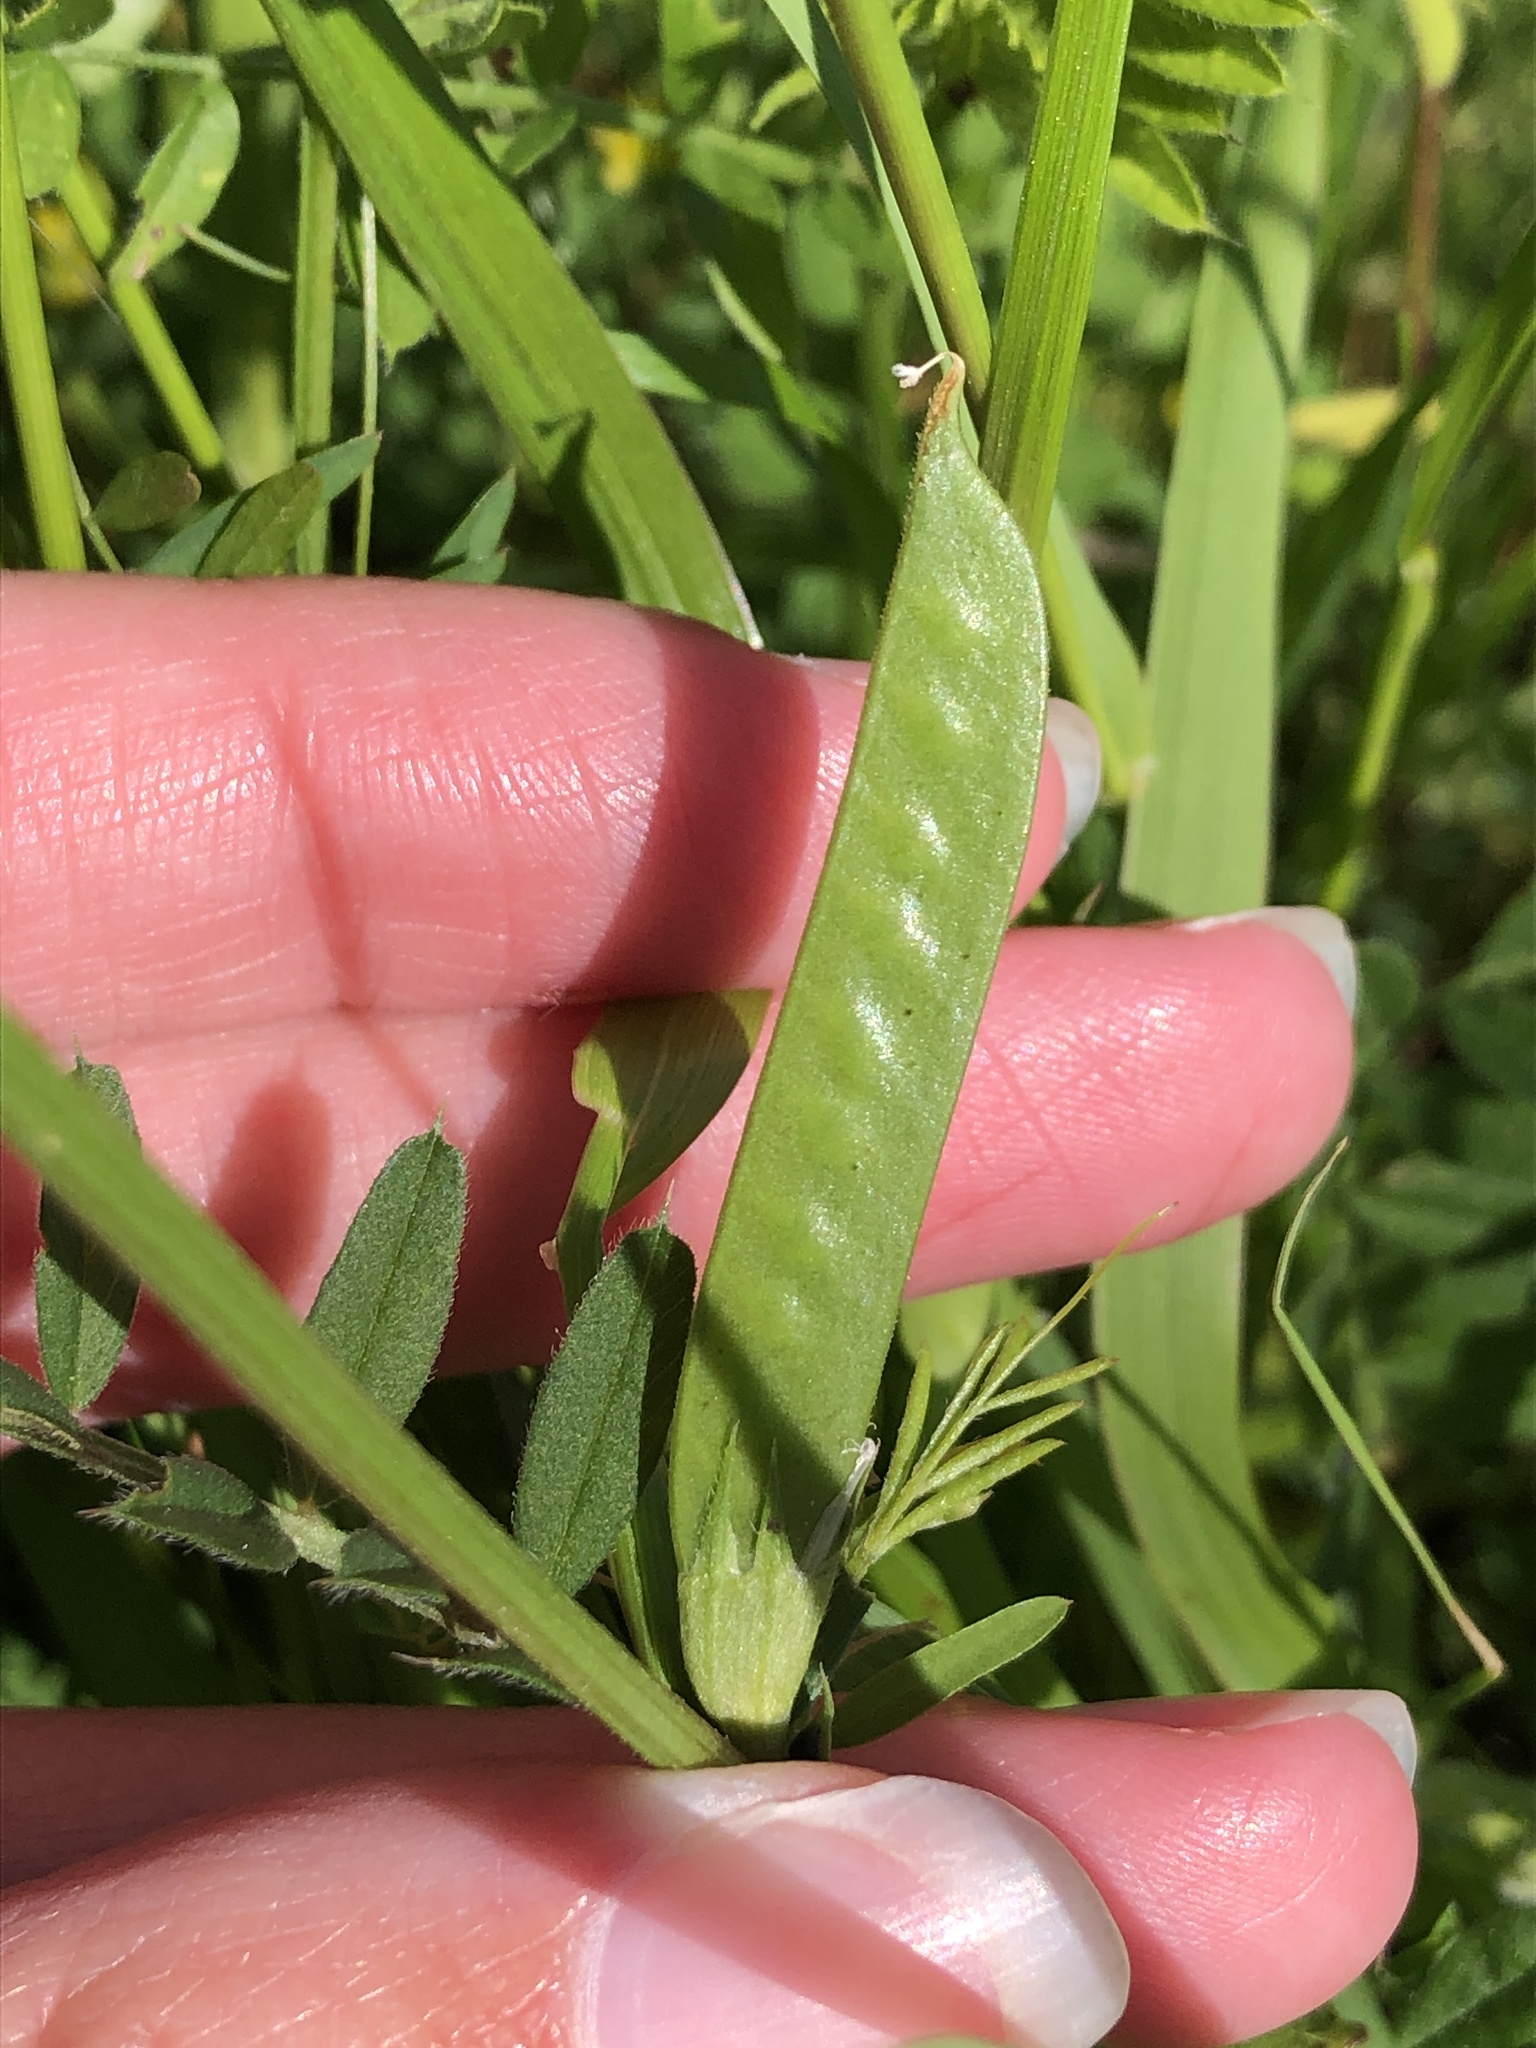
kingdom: Plantae
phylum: Tracheophyta
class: Magnoliopsida
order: Fabales
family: Fabaceae
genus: Vicia
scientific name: Vicia sativa
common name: Garden vetch
